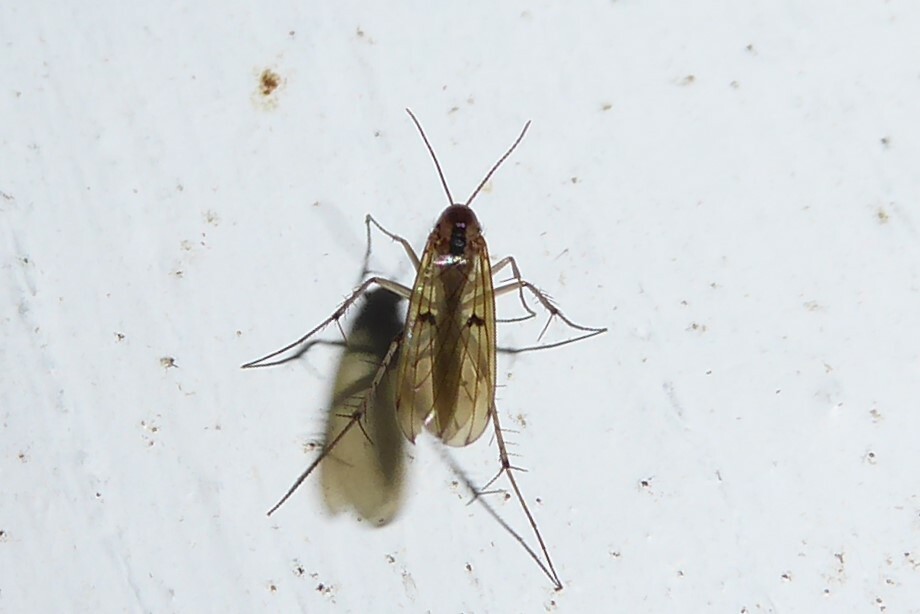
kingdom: Animalia
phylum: Arthropoda
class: Insecta
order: Diptera
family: Mycetophilidae
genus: Mycetophila
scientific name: Mycetophila marginepunctata
